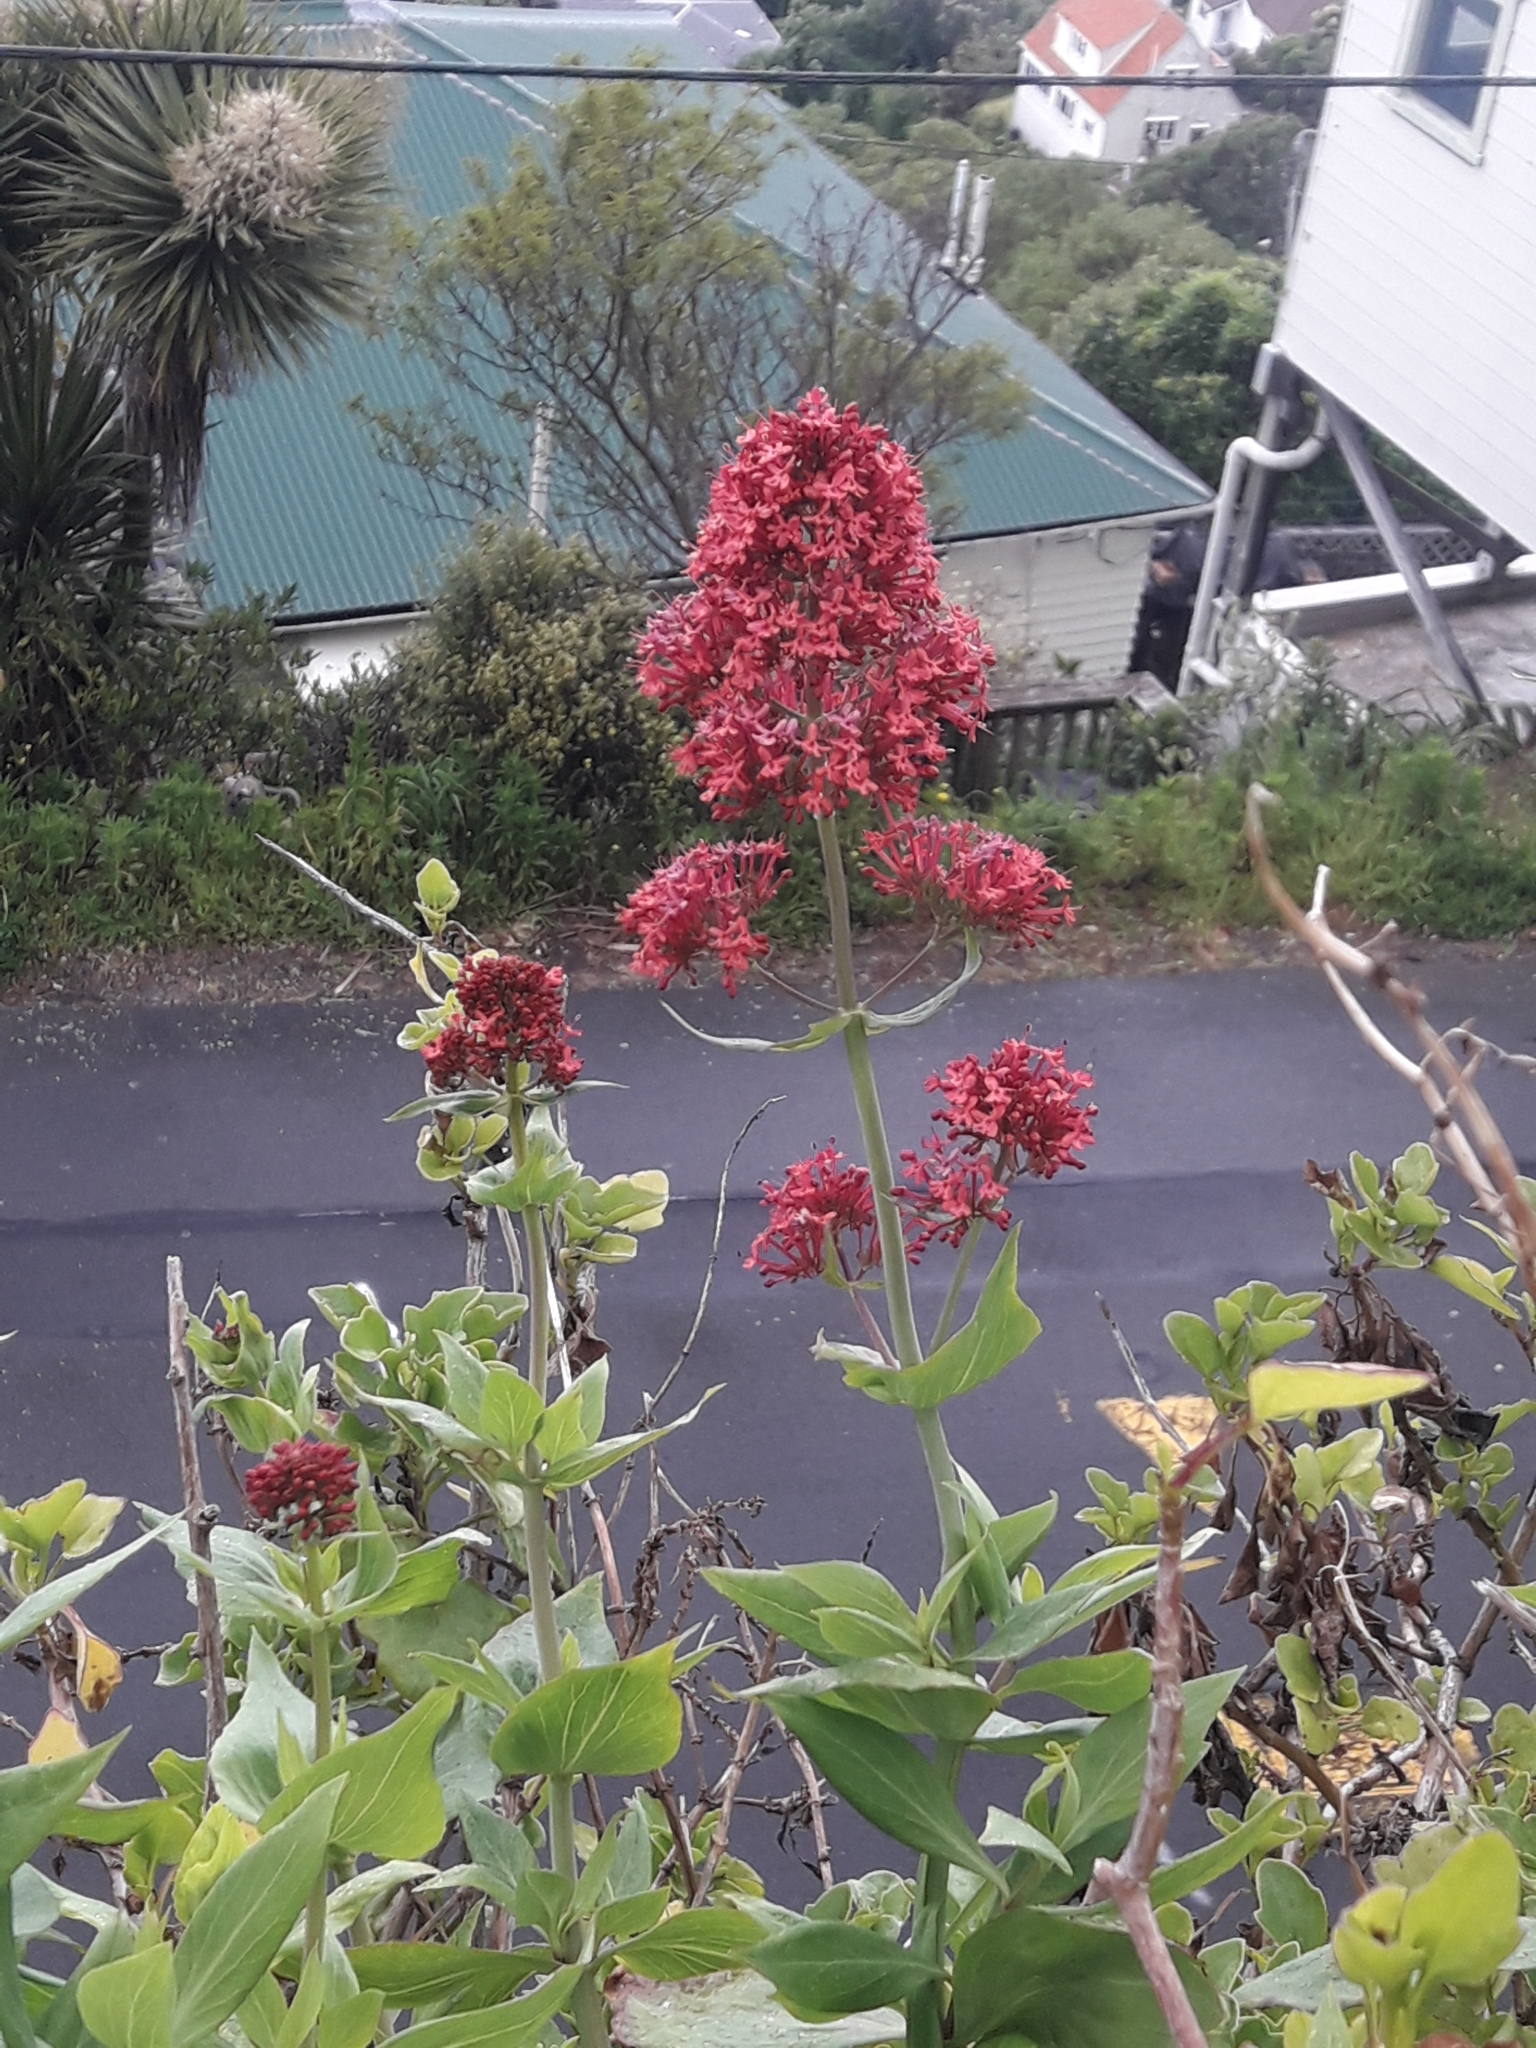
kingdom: Plantae
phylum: Tracheophyta
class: Magnoliopsida
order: Dipsacales
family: Caprifoliaceae
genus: Centranthus
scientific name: Centranthus ruber
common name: Red valerian
